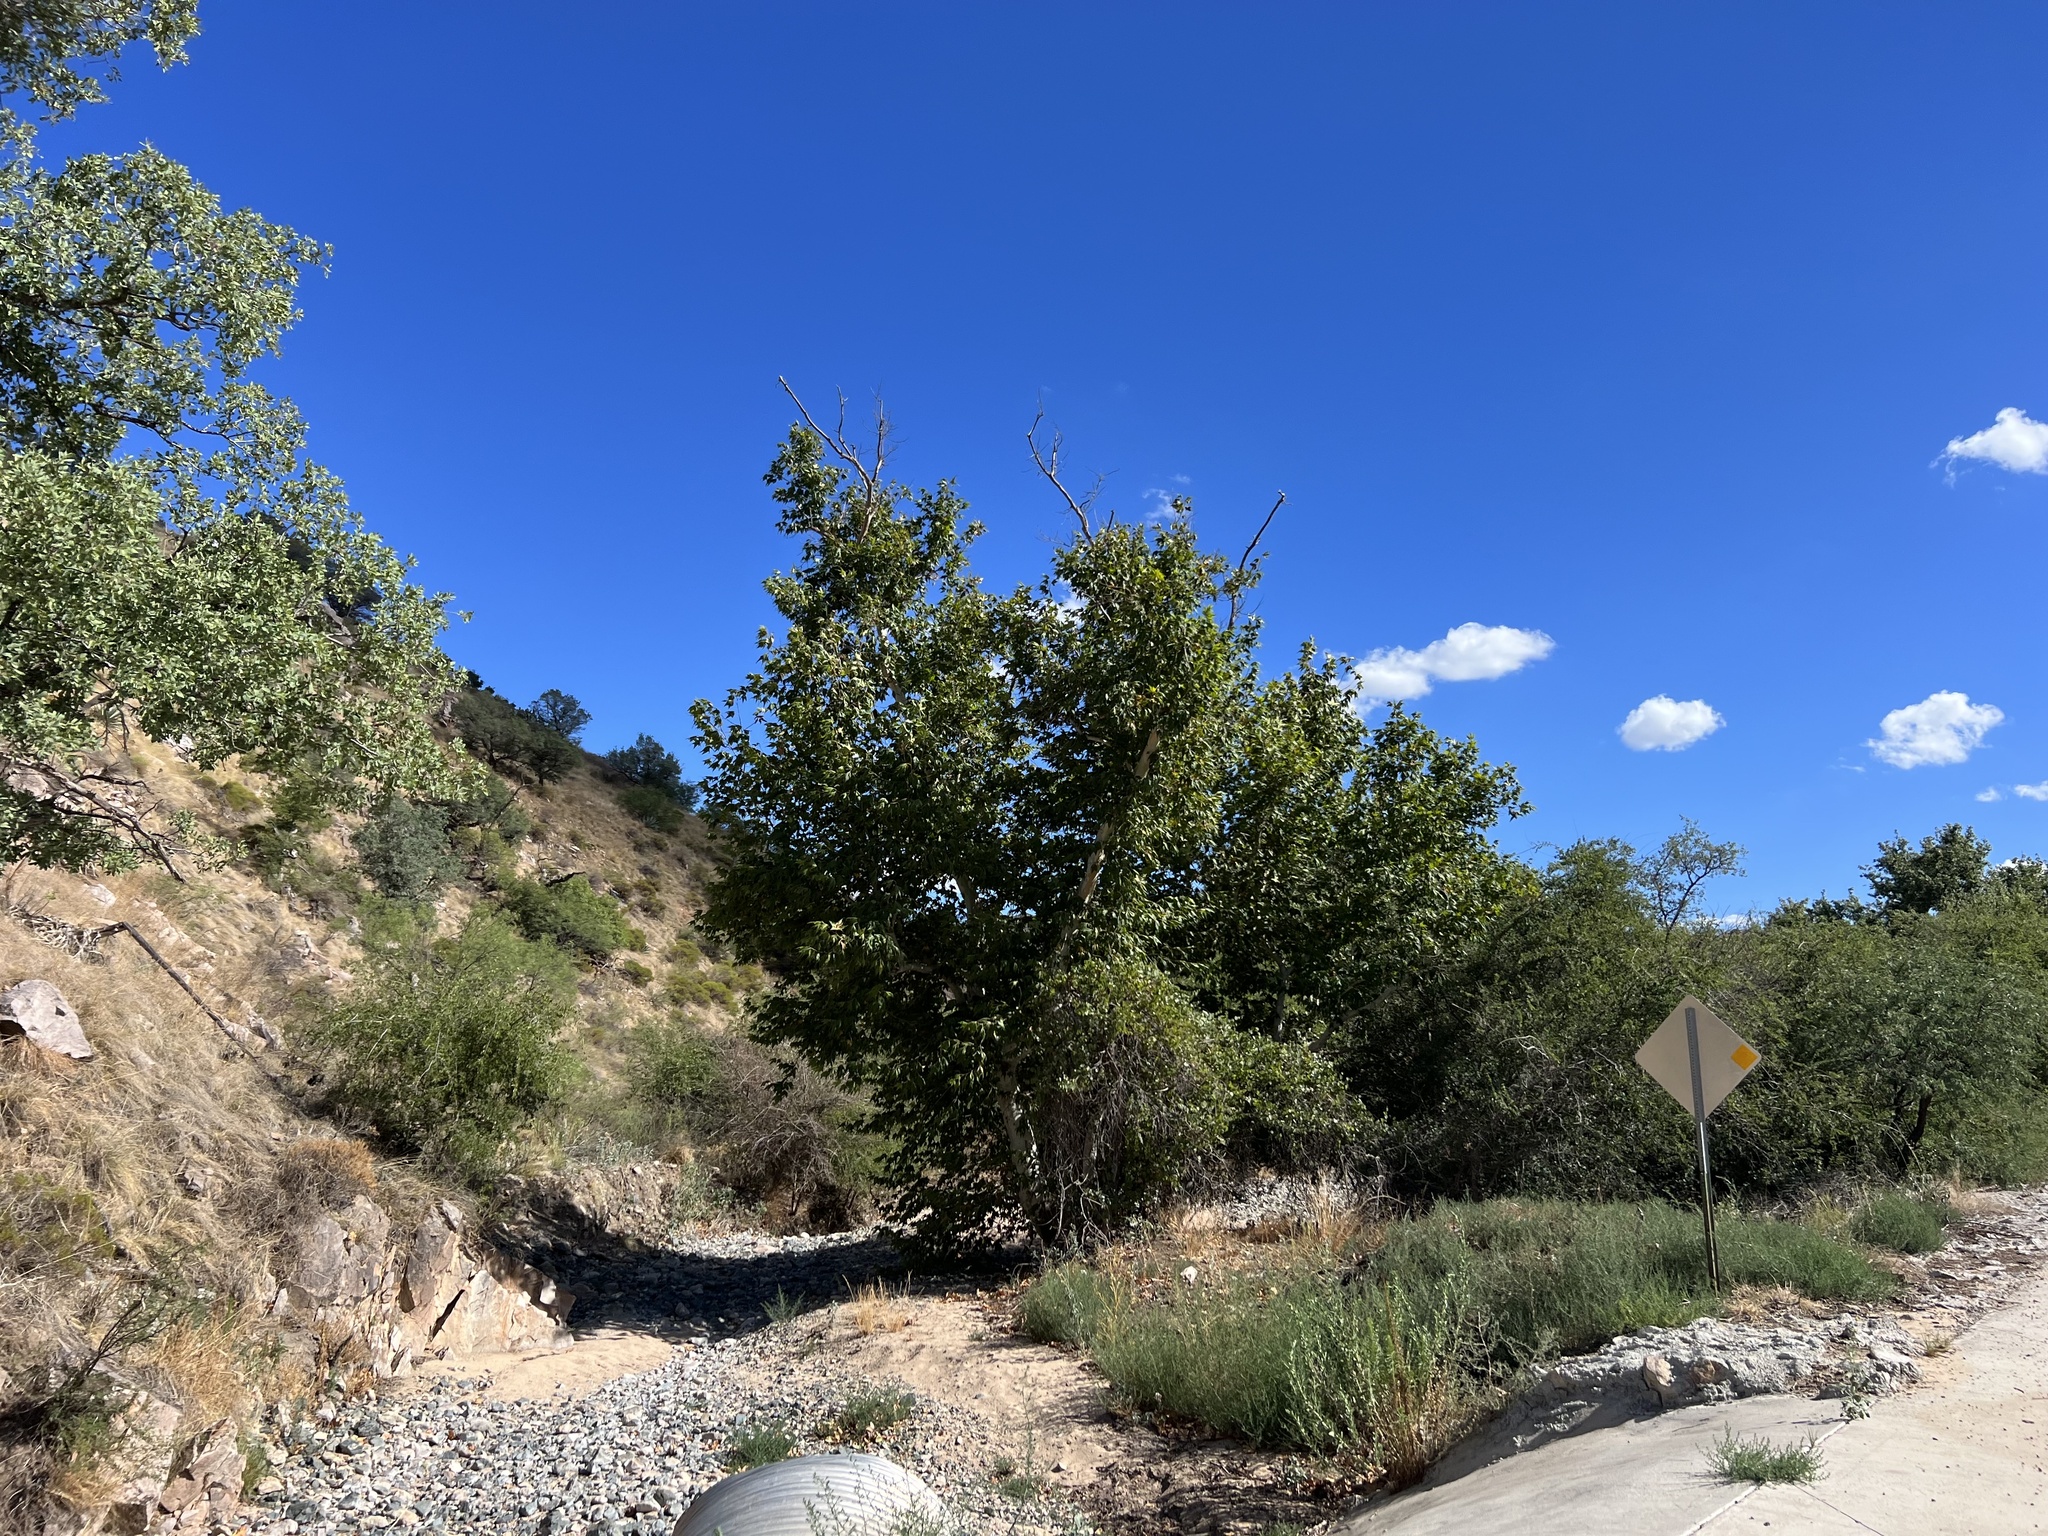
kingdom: Plantae
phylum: Tracheophyta
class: Magnoliopsida
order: Proteales
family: Platanaceae
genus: Platanus
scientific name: Platanus wrightii
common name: Arizona sycamore
